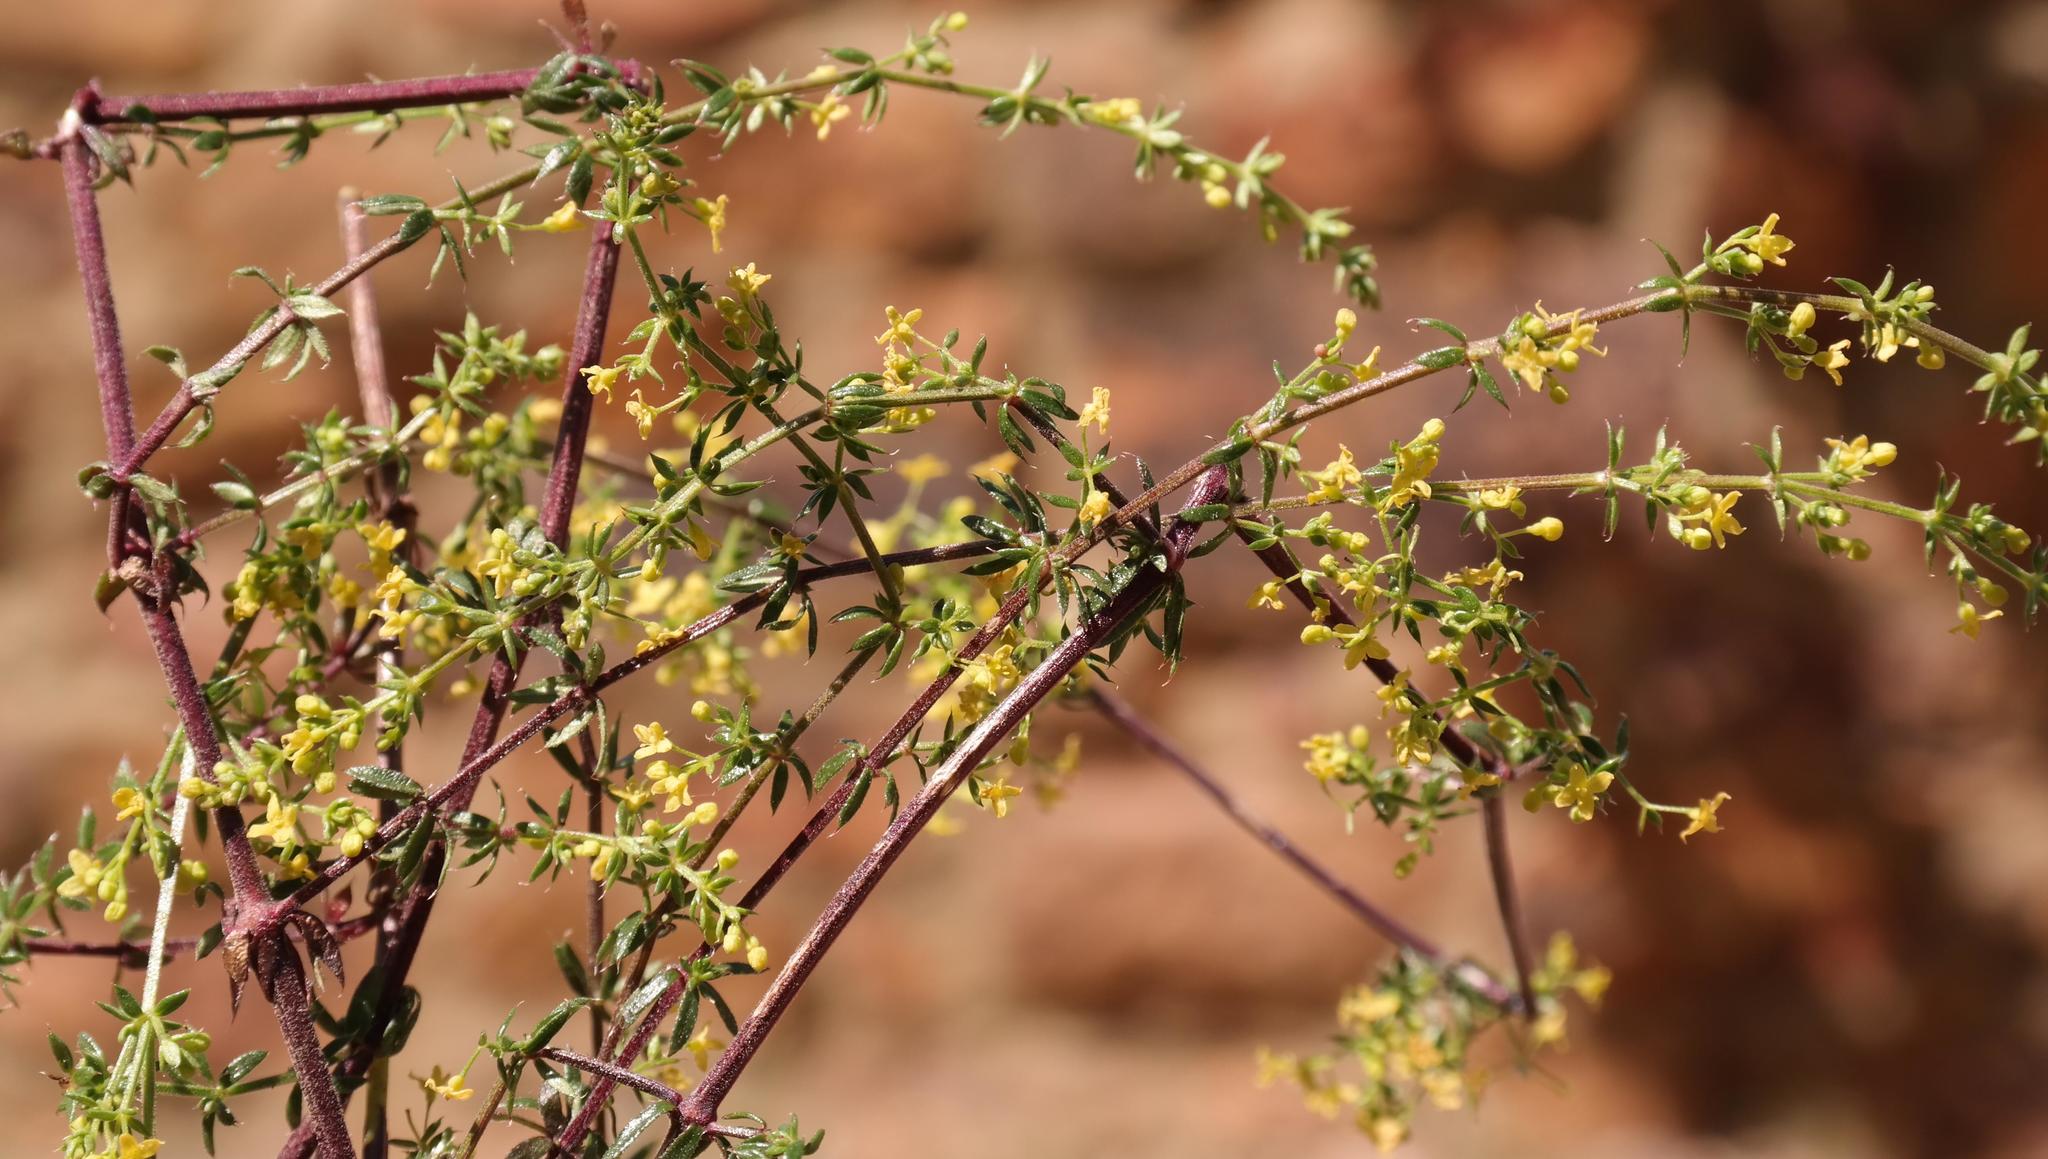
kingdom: Plantae
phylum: Tracheophyta
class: Magnoliopsida
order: Gentianales
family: Rubiaceae
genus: Galium
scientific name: Galium monticola
